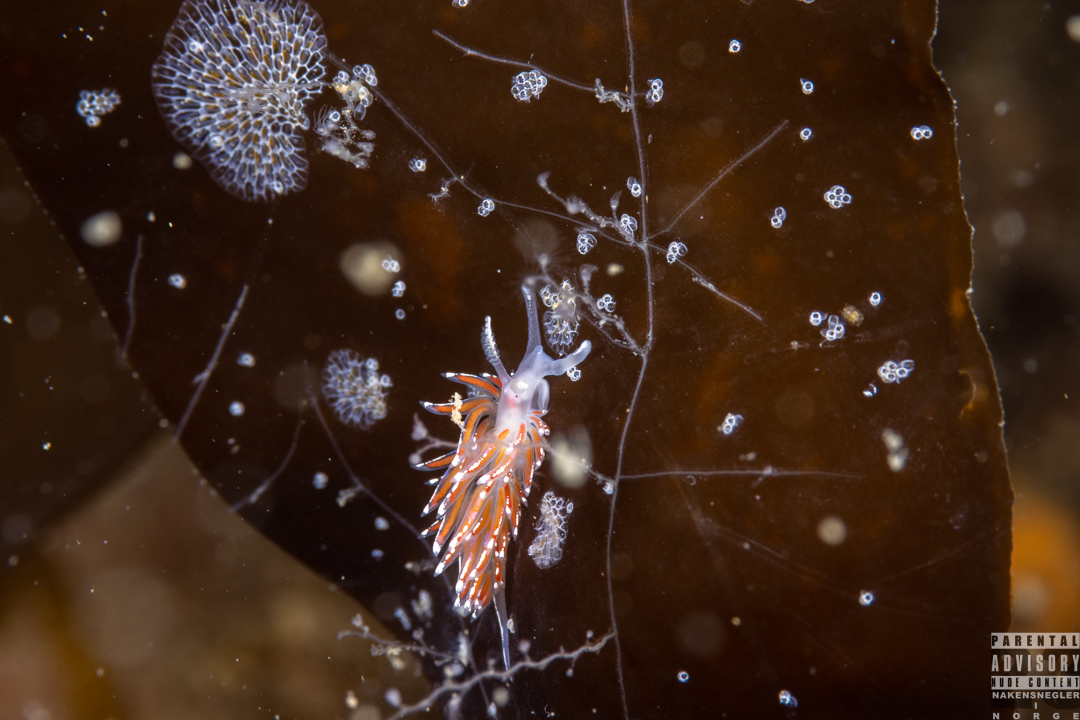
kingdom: Animalia
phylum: Mollusca
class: Gastropoda
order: Nudibranchia
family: Facelinidae
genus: Facelina
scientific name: Facelina auriculata
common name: Slender facelina
